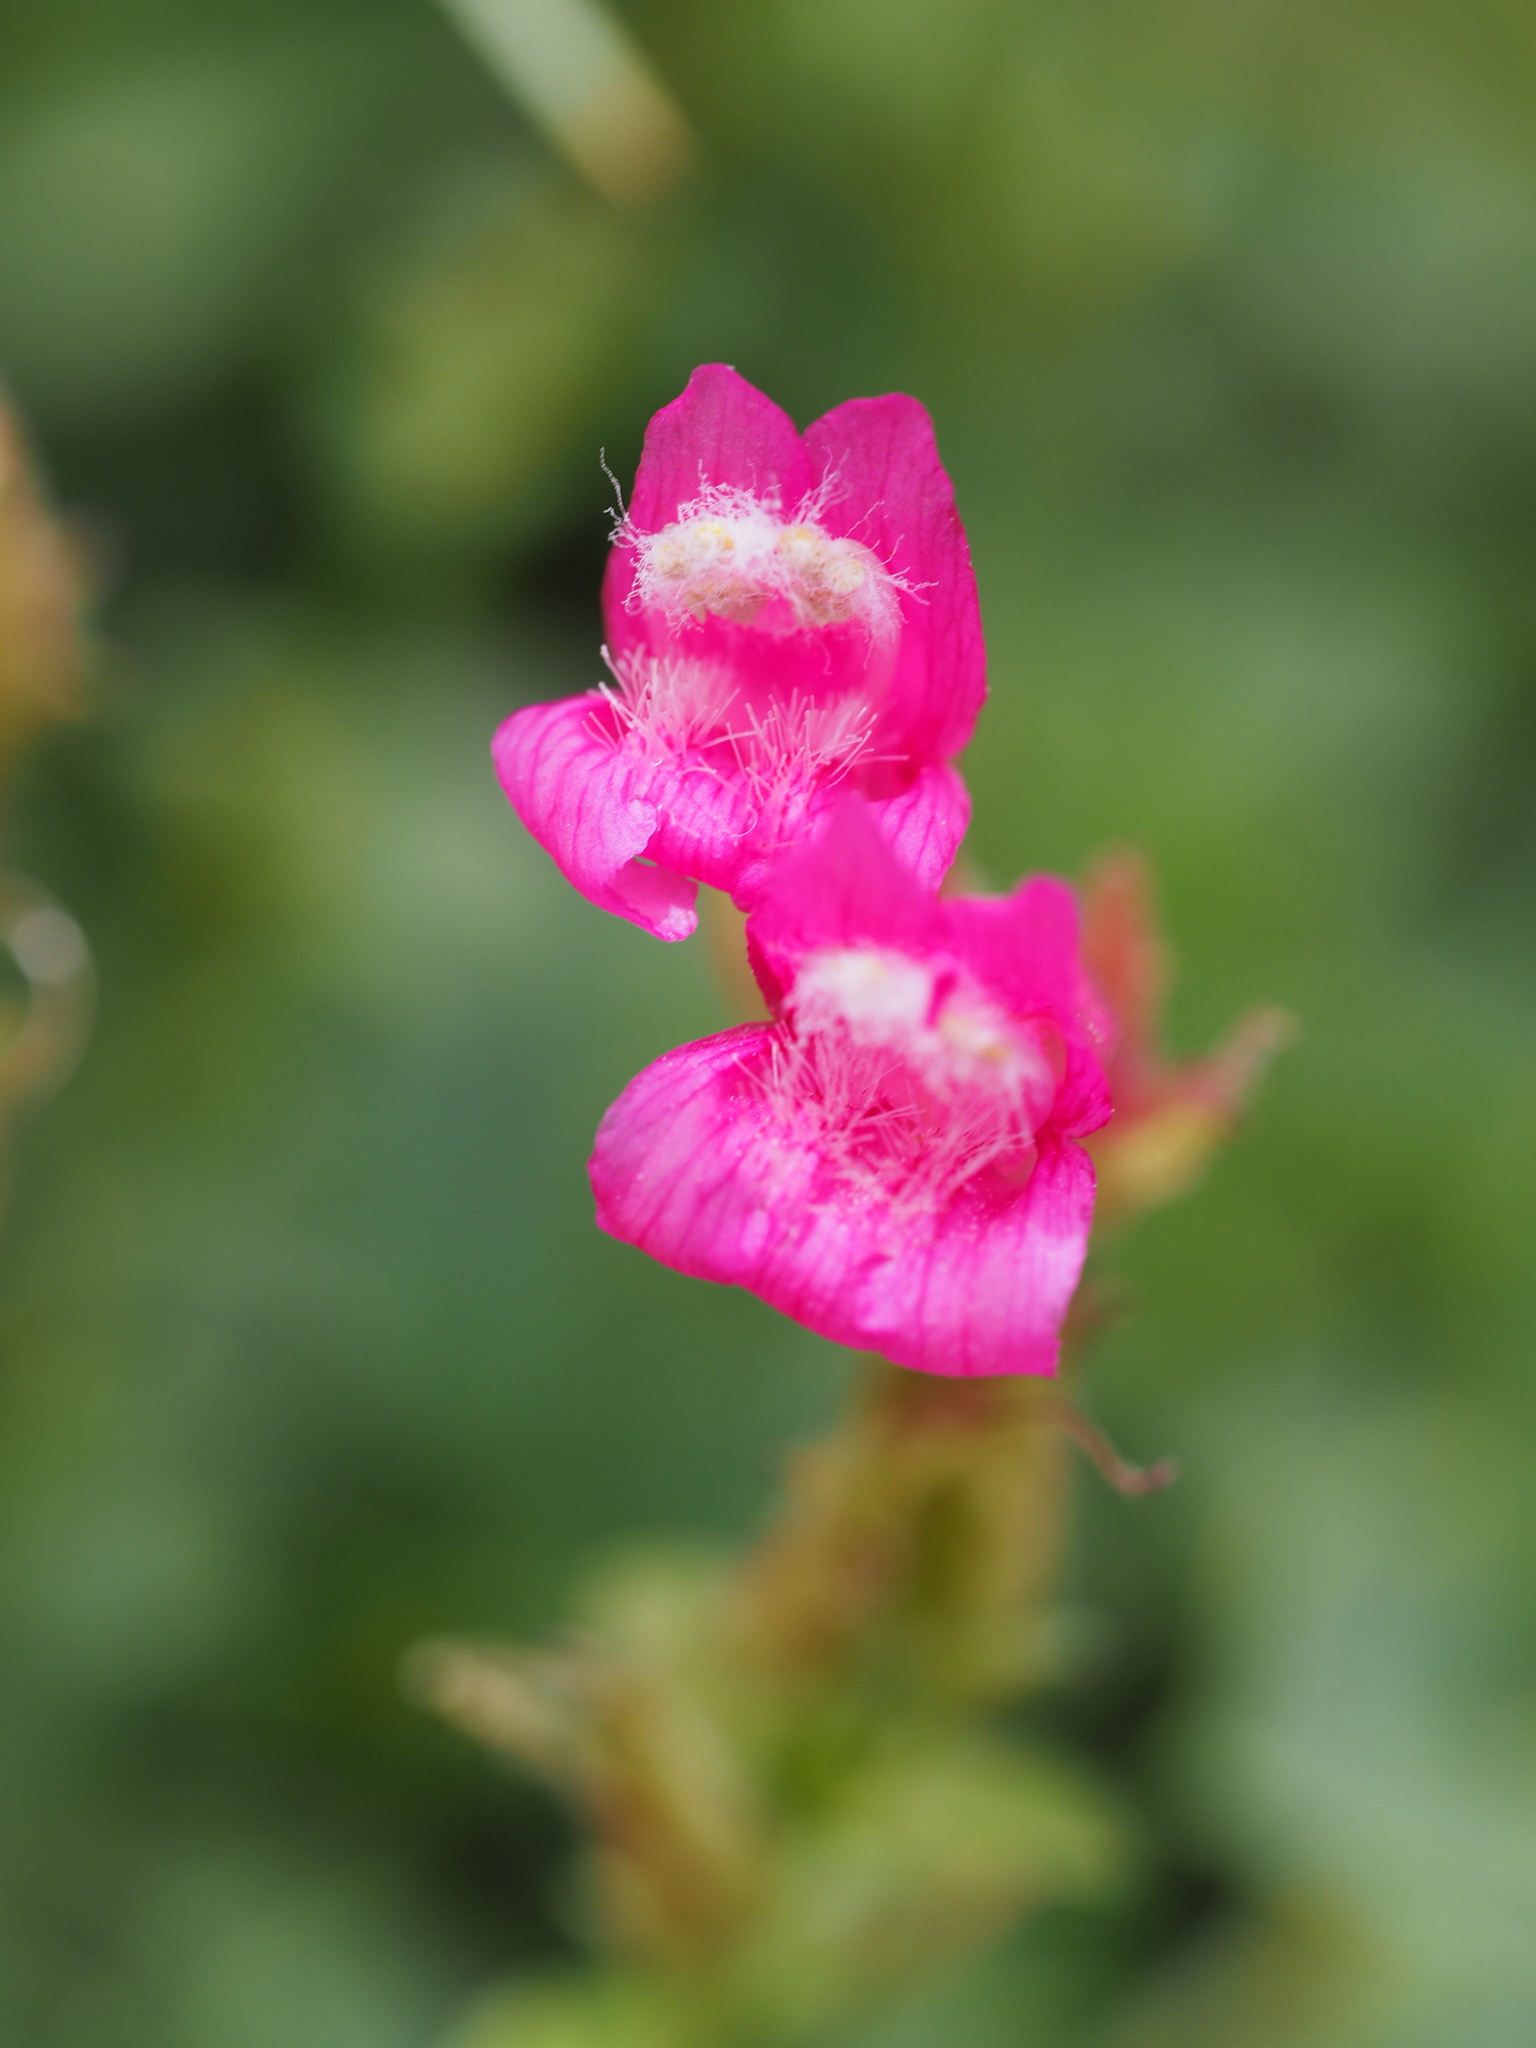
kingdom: Plantae
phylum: Tracheophyta
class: Magnoliopsida
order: Lamiales
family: Plantaginaceae
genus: Penstemon
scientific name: Penstemon newberryi
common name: Mountain-pride
